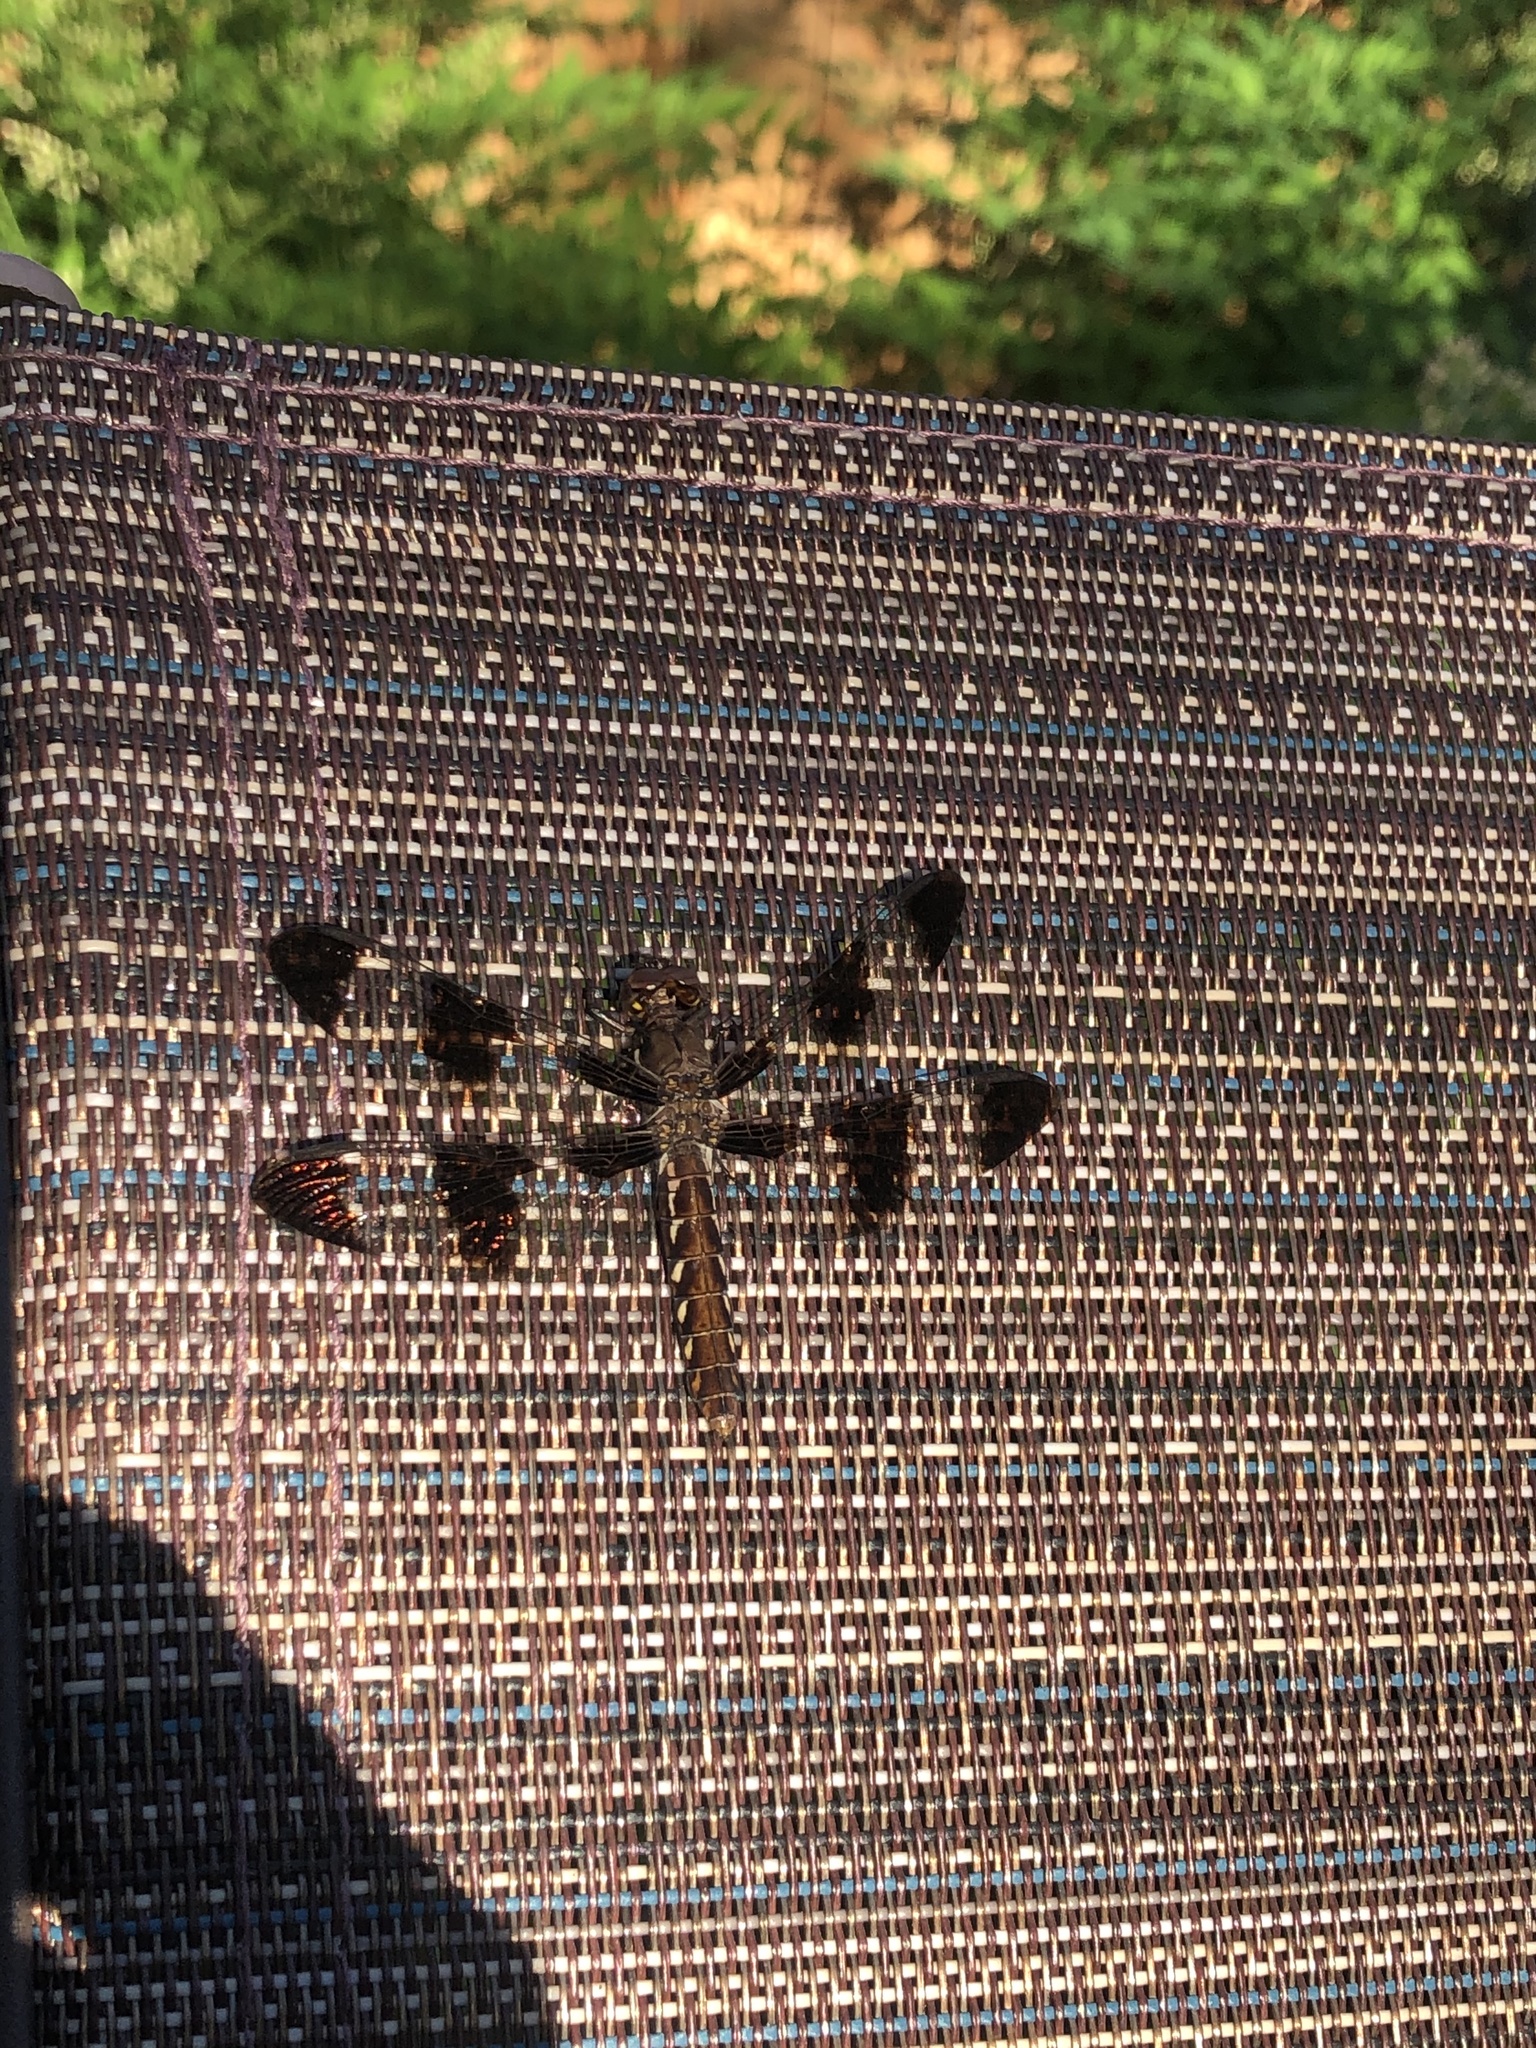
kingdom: Animalia
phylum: Arthropoda
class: Insecta
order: Odonata
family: Libellulidae
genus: Plathemis
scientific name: Plathemis lydia
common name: Common whitetail
